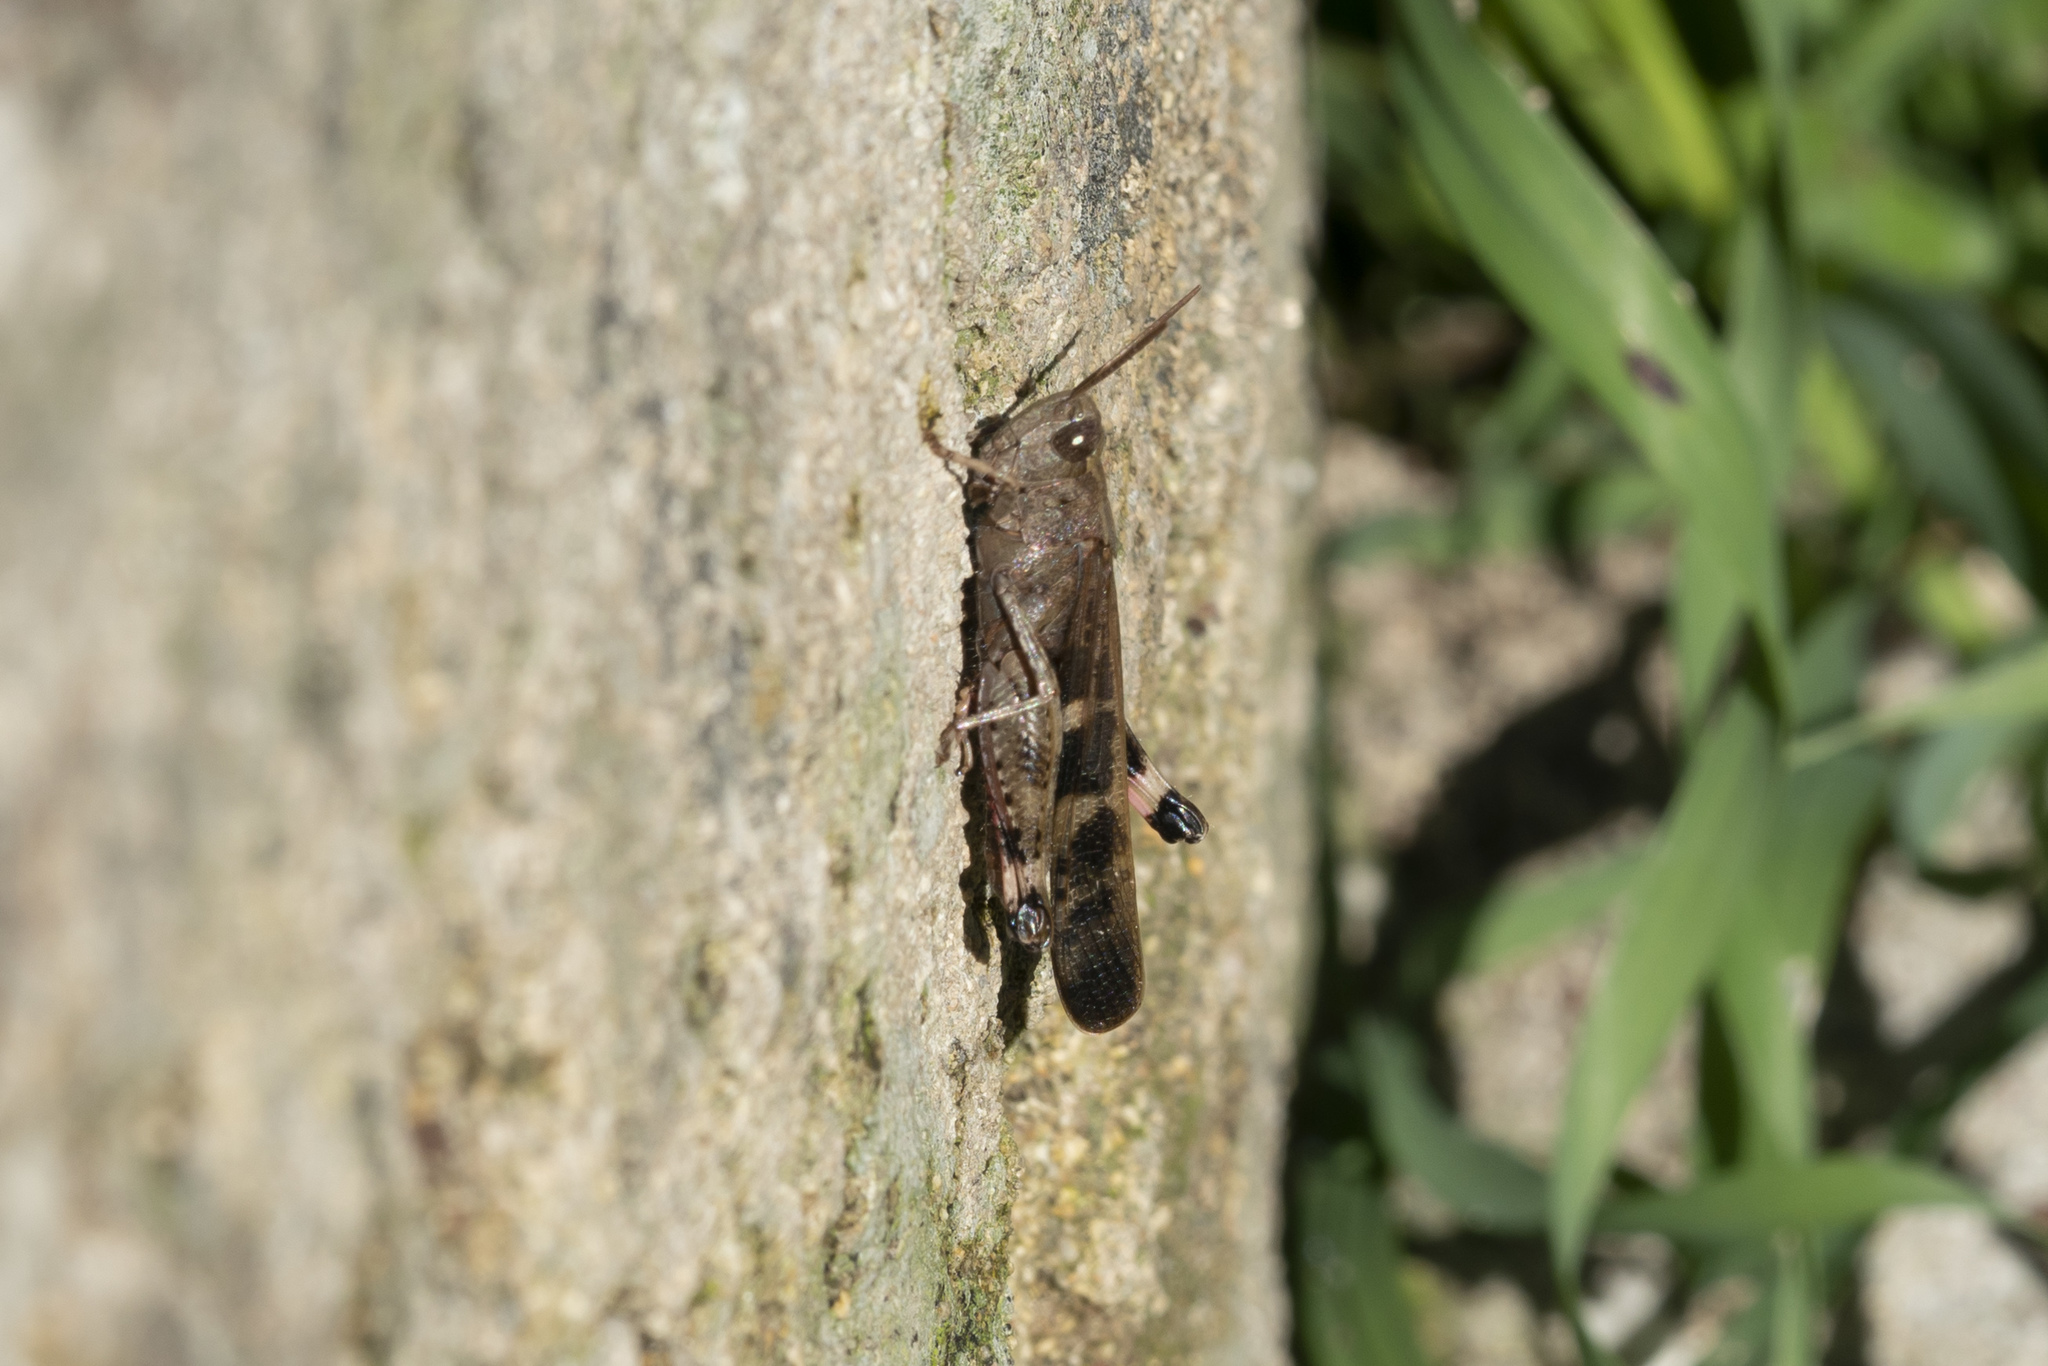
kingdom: Animalia
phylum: Arthropoda
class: Insecta
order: Orthoptera
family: Acrididae
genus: Aiolopus
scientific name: Aiolopus strepens
